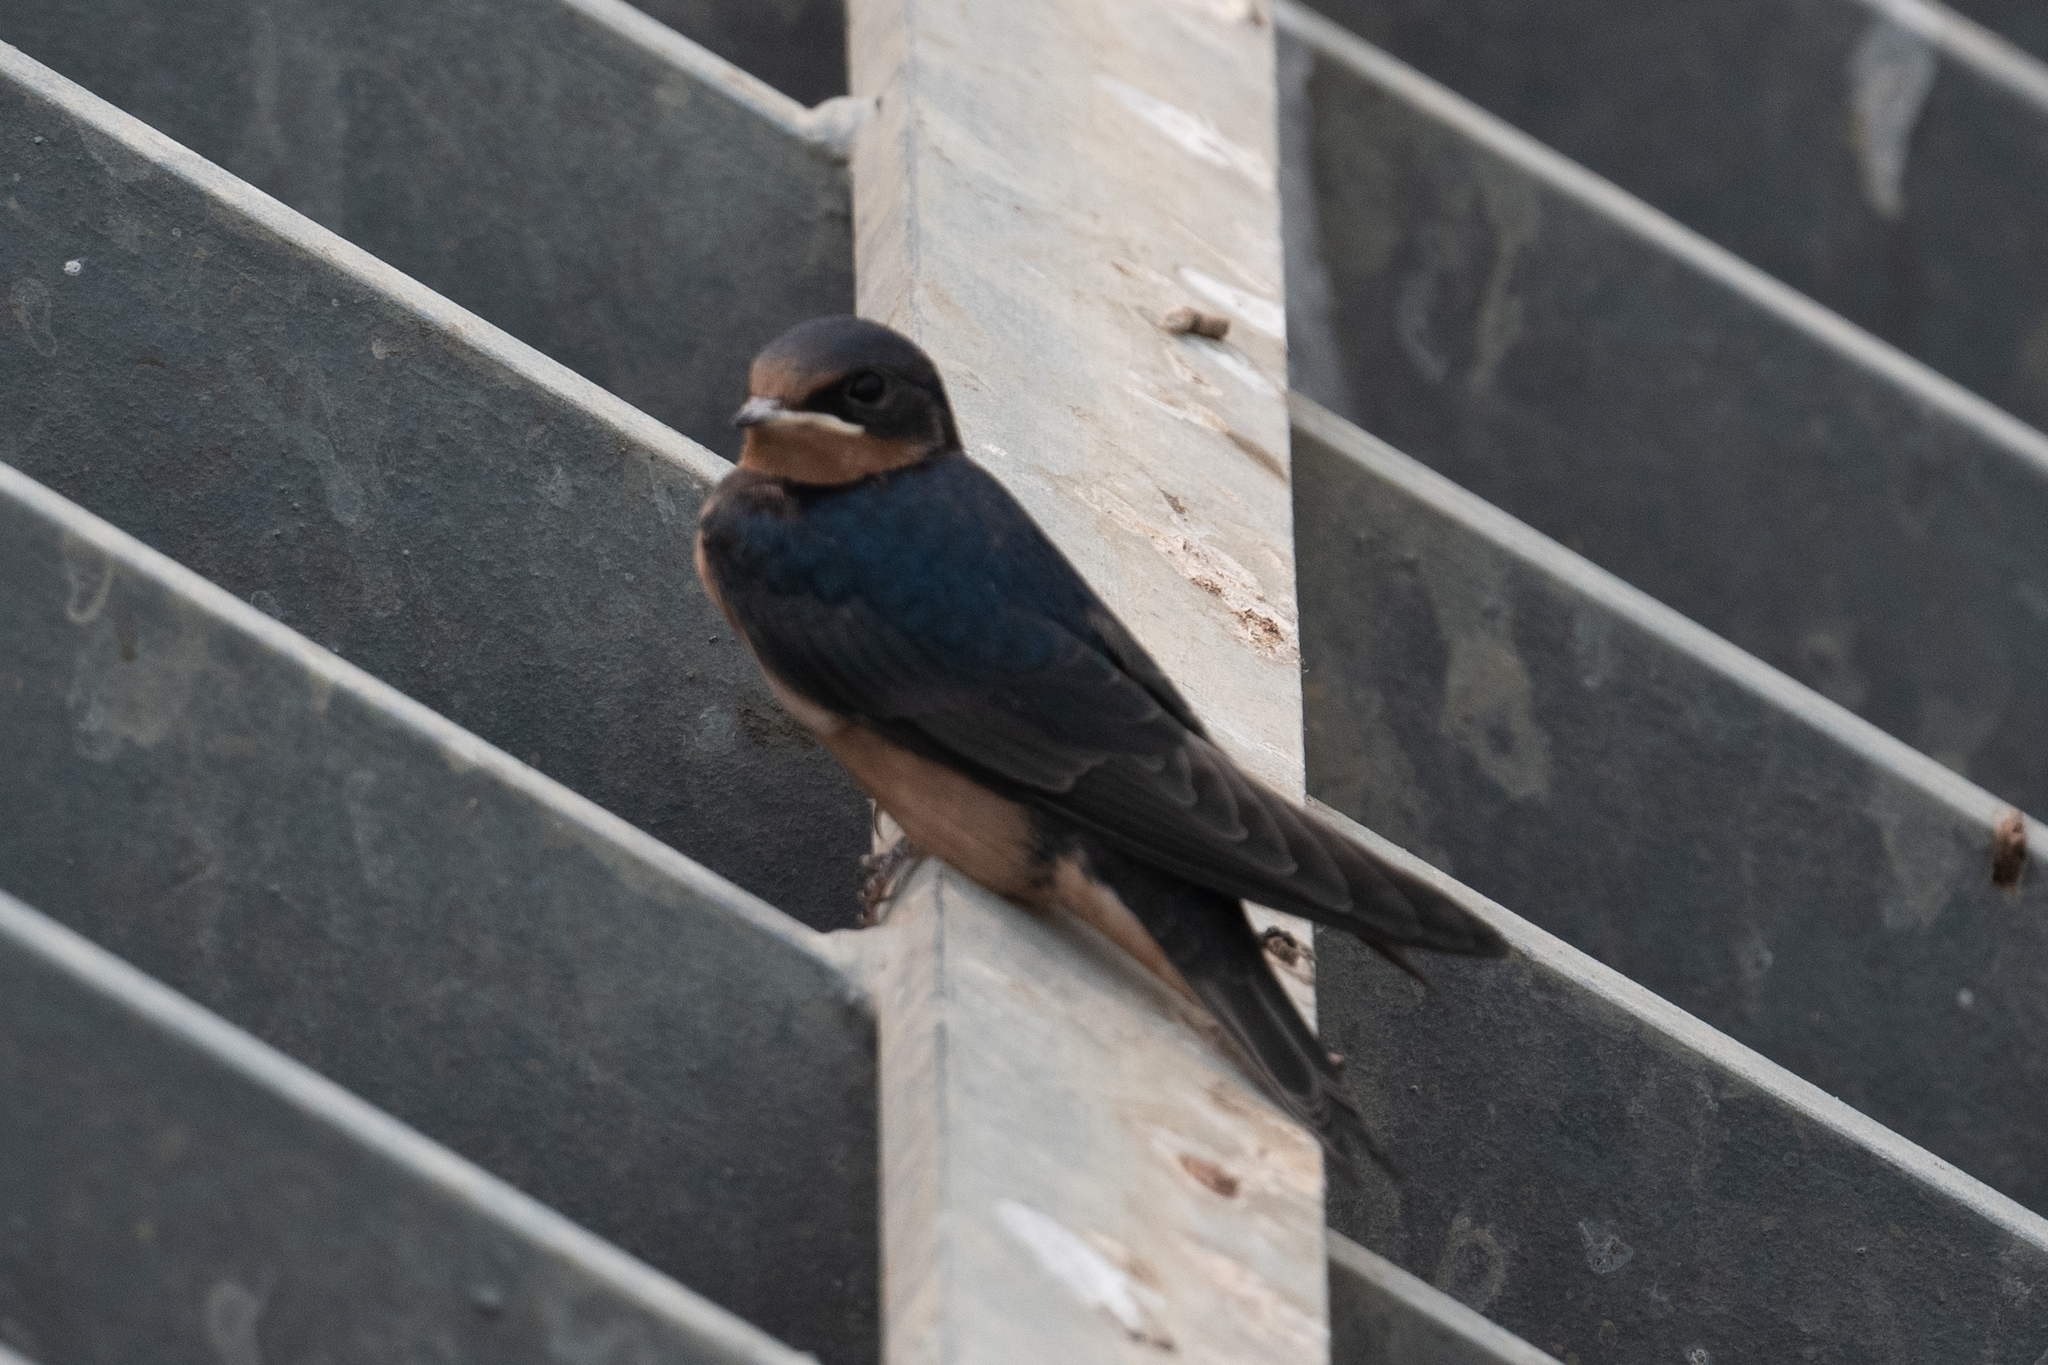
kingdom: Animalia
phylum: Chordata
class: Aves
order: Passeriformes
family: Hirundinidae
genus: Hirundo
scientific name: Hirundo rustica
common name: Barn swallow
